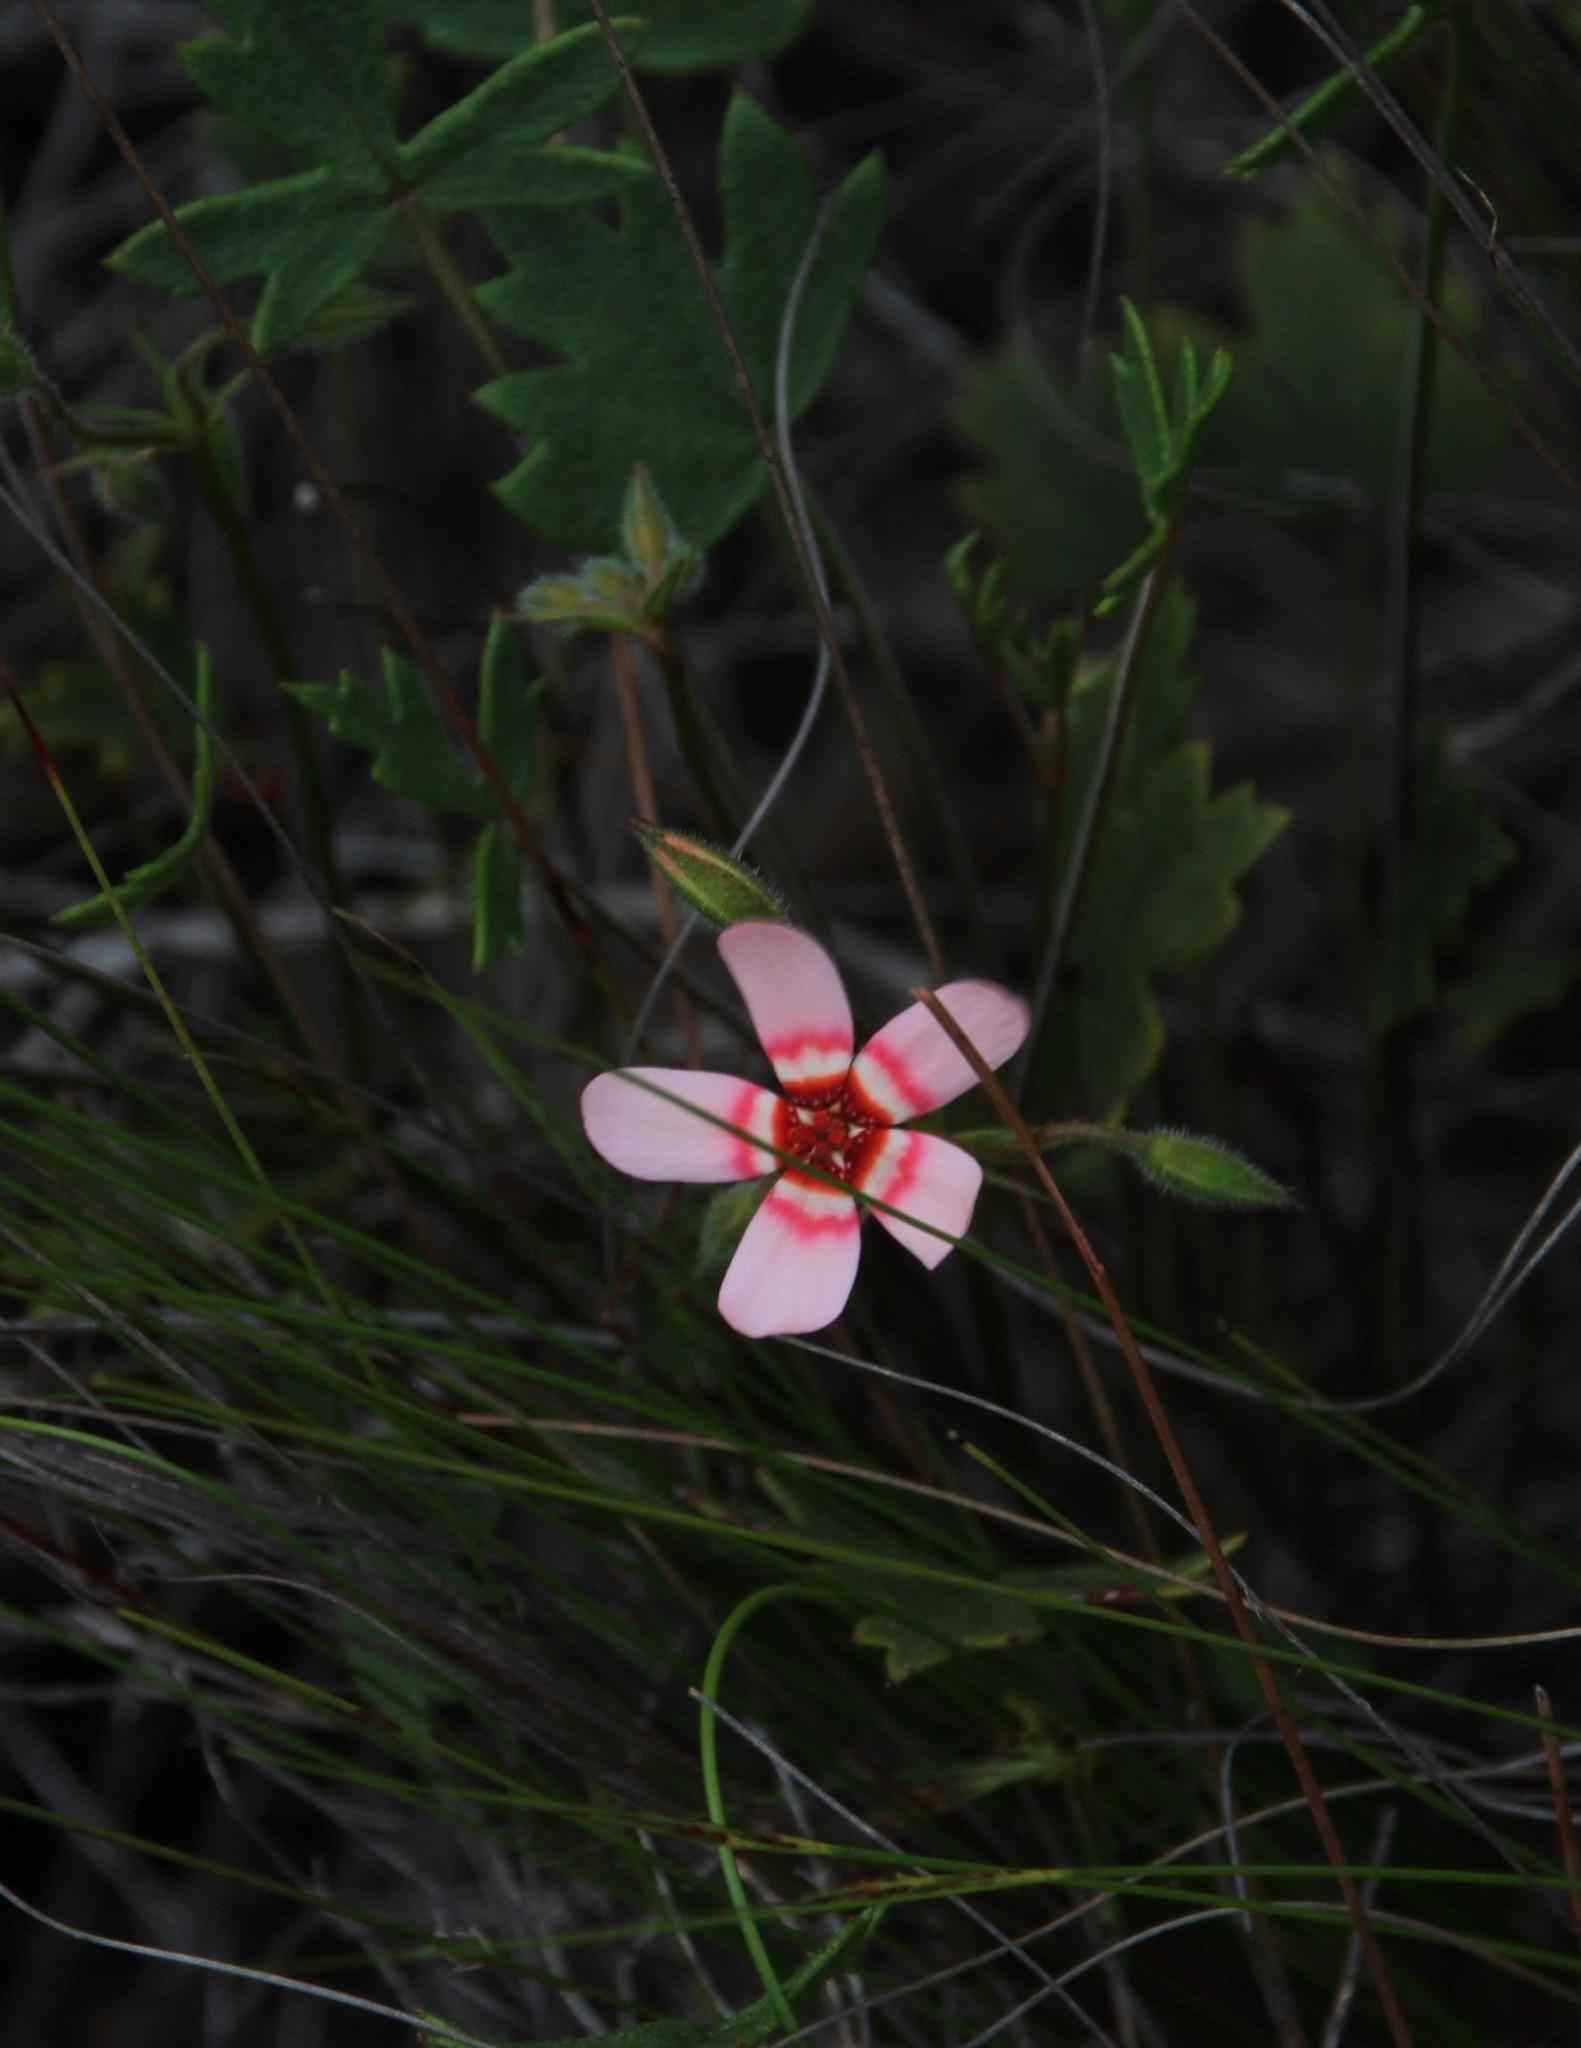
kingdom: Plantae
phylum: Tracheophyta
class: Magnoliopsida
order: Geraniales
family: Geraniaceae
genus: Pelargonium
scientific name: Pelargonium incarnatum
